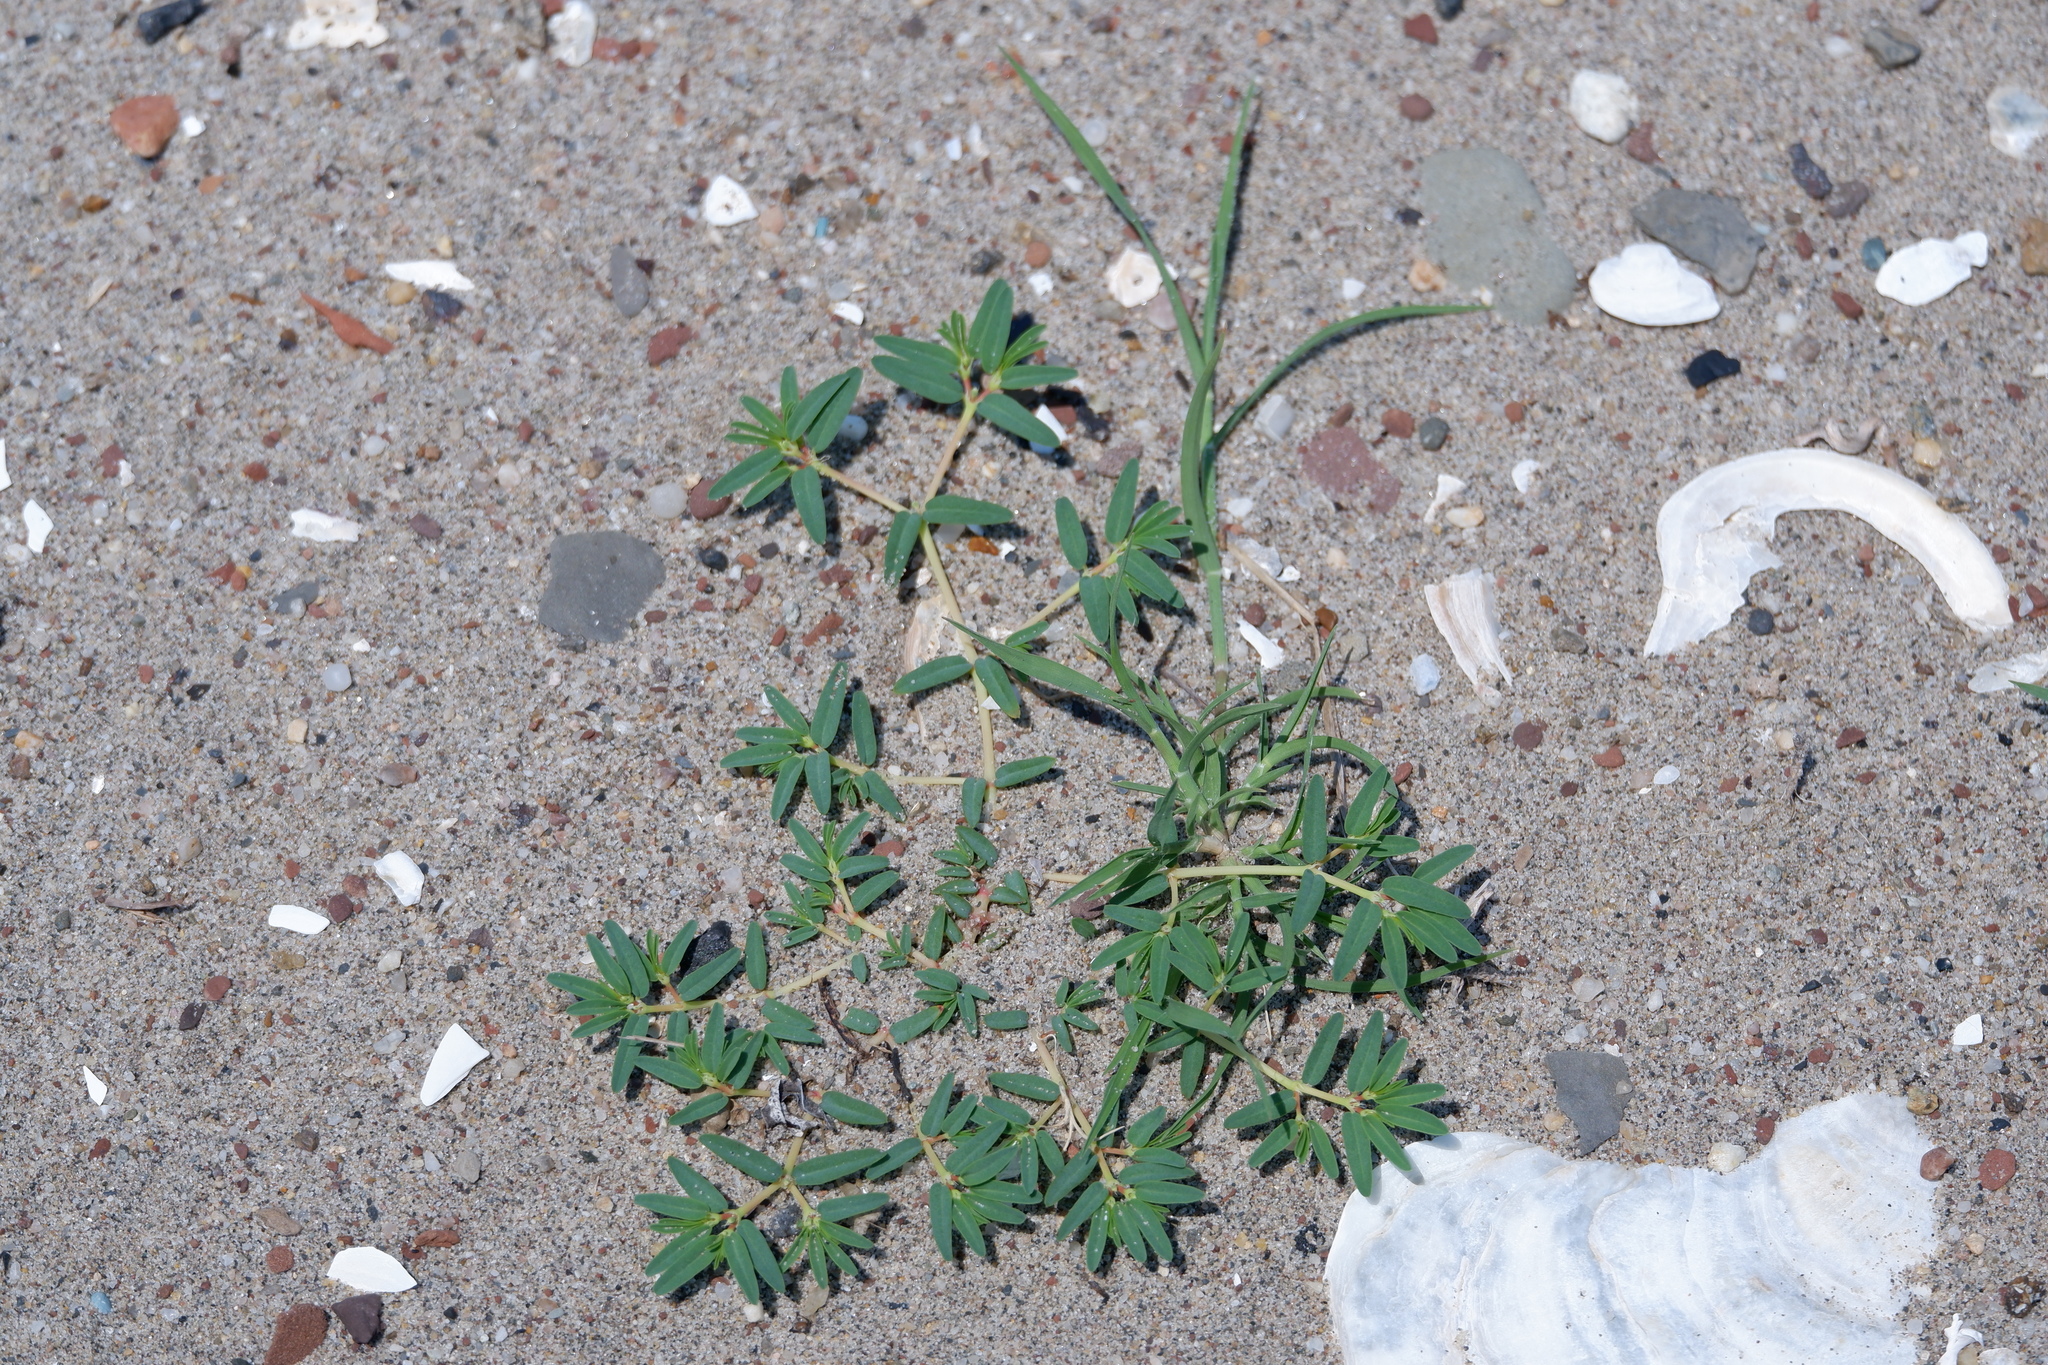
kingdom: Plantae
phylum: Tracheophyta
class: Magnoliopsida
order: Malpighiales
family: Euphorbiaceae
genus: Euphorbia
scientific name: Euphorbia polygonifolia
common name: Knotweed spurge
